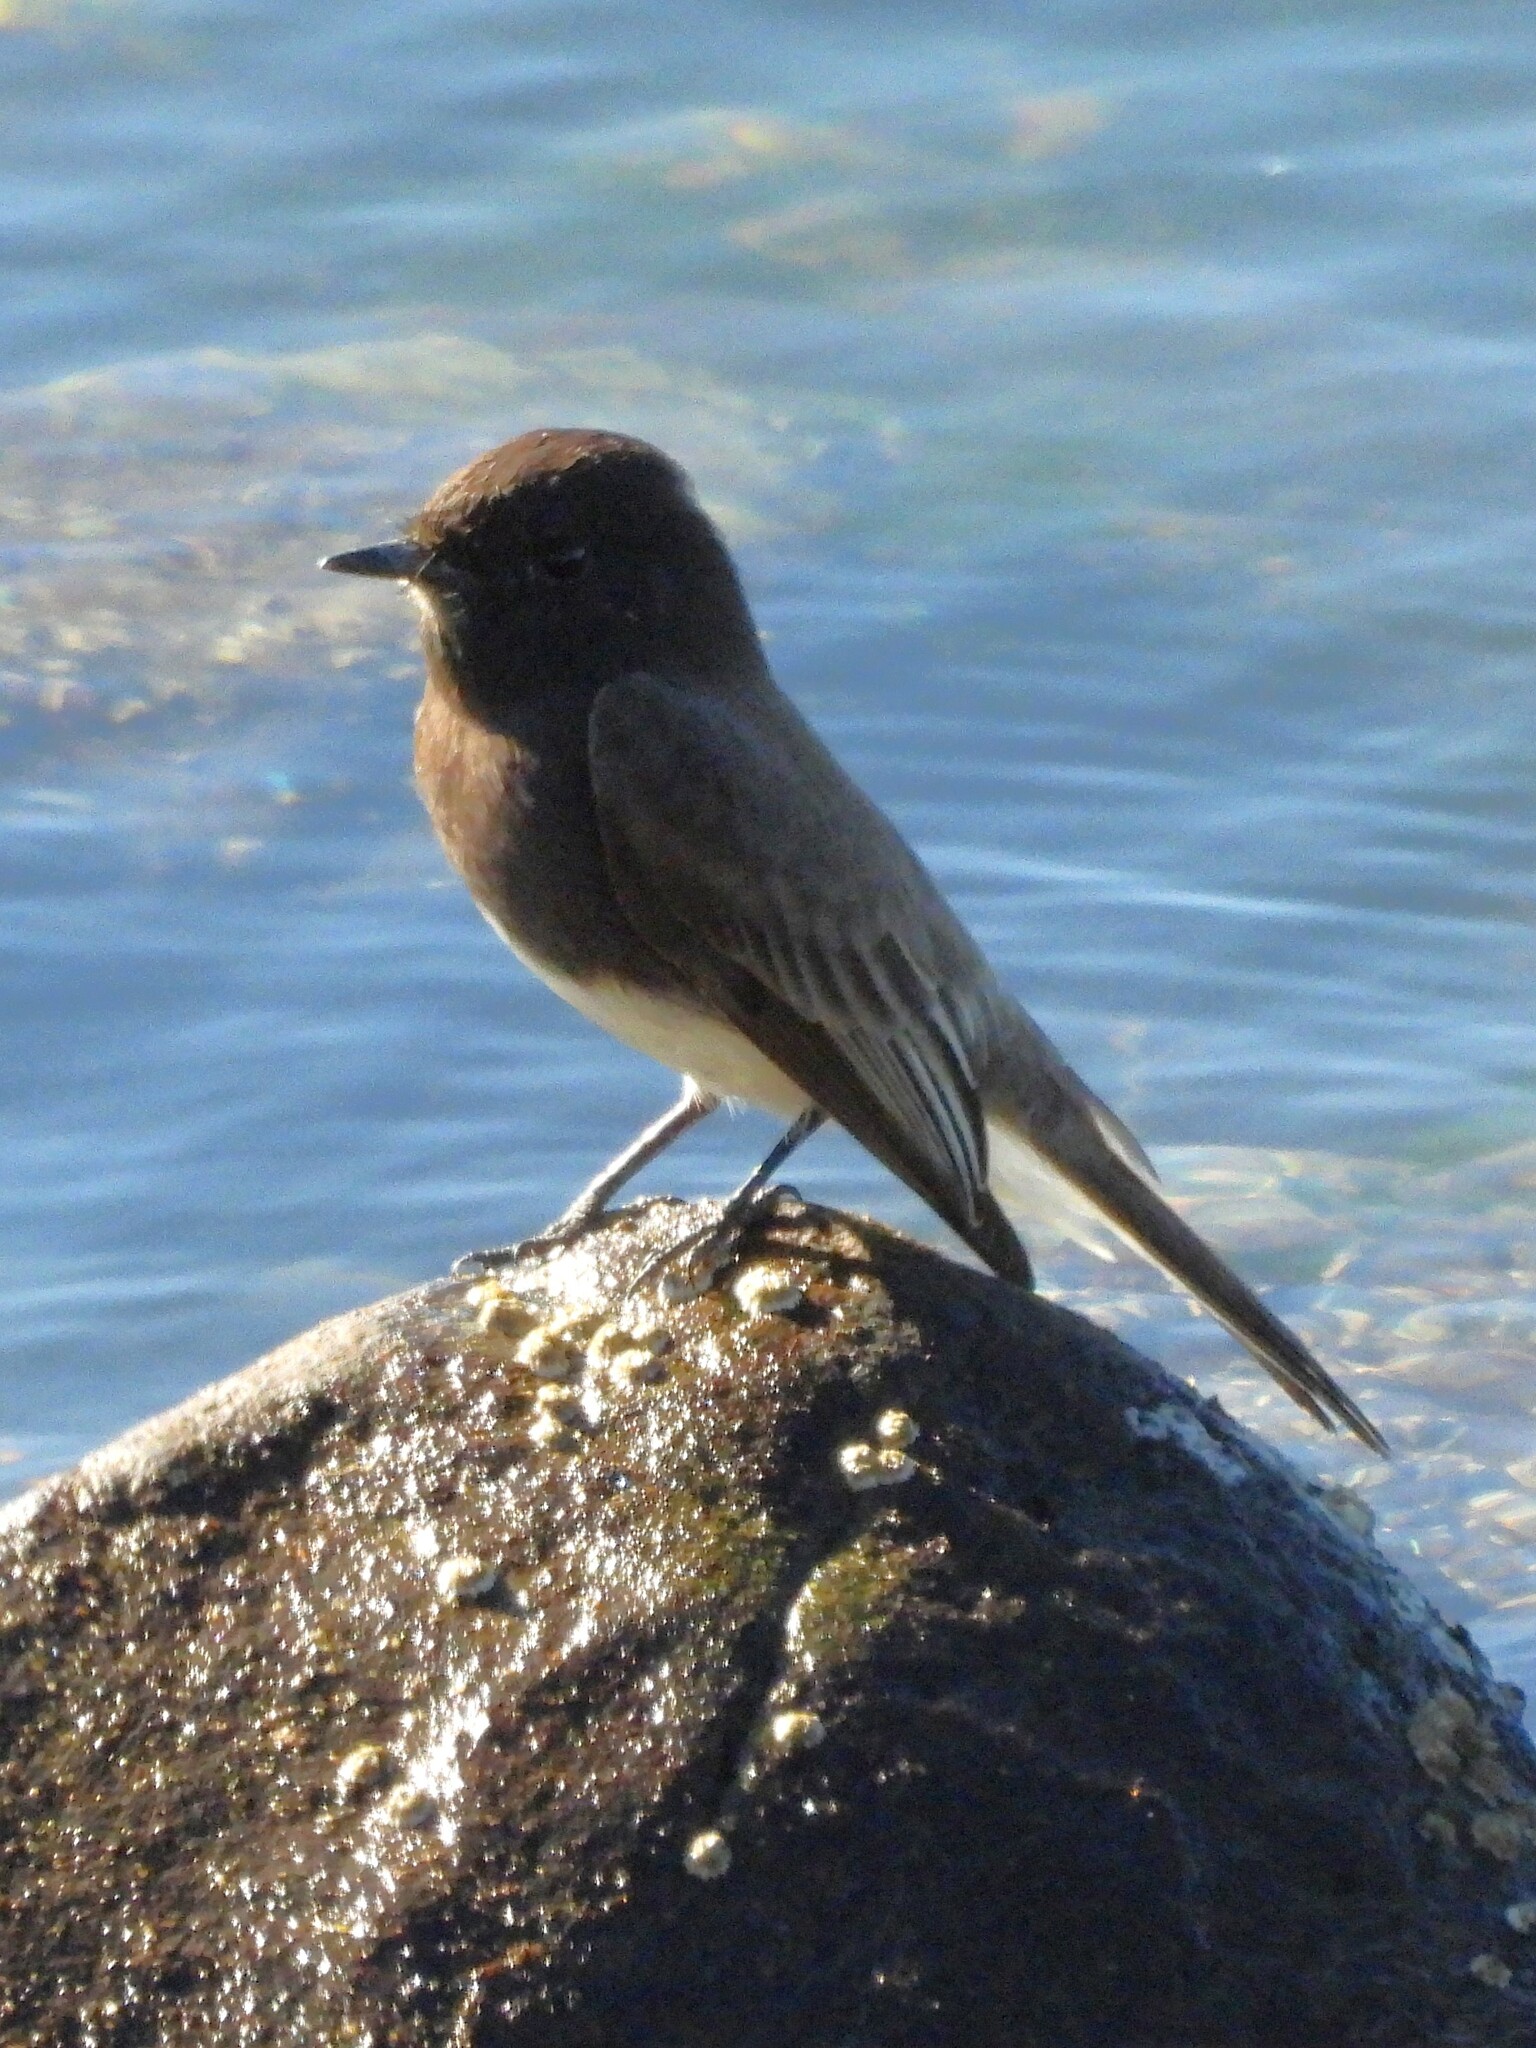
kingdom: Animalia
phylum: Chordata
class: Aves
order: Passeriformes
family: Tyrannidae
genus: Sayornis
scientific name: Sayornis nigricans
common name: Black phoebe
